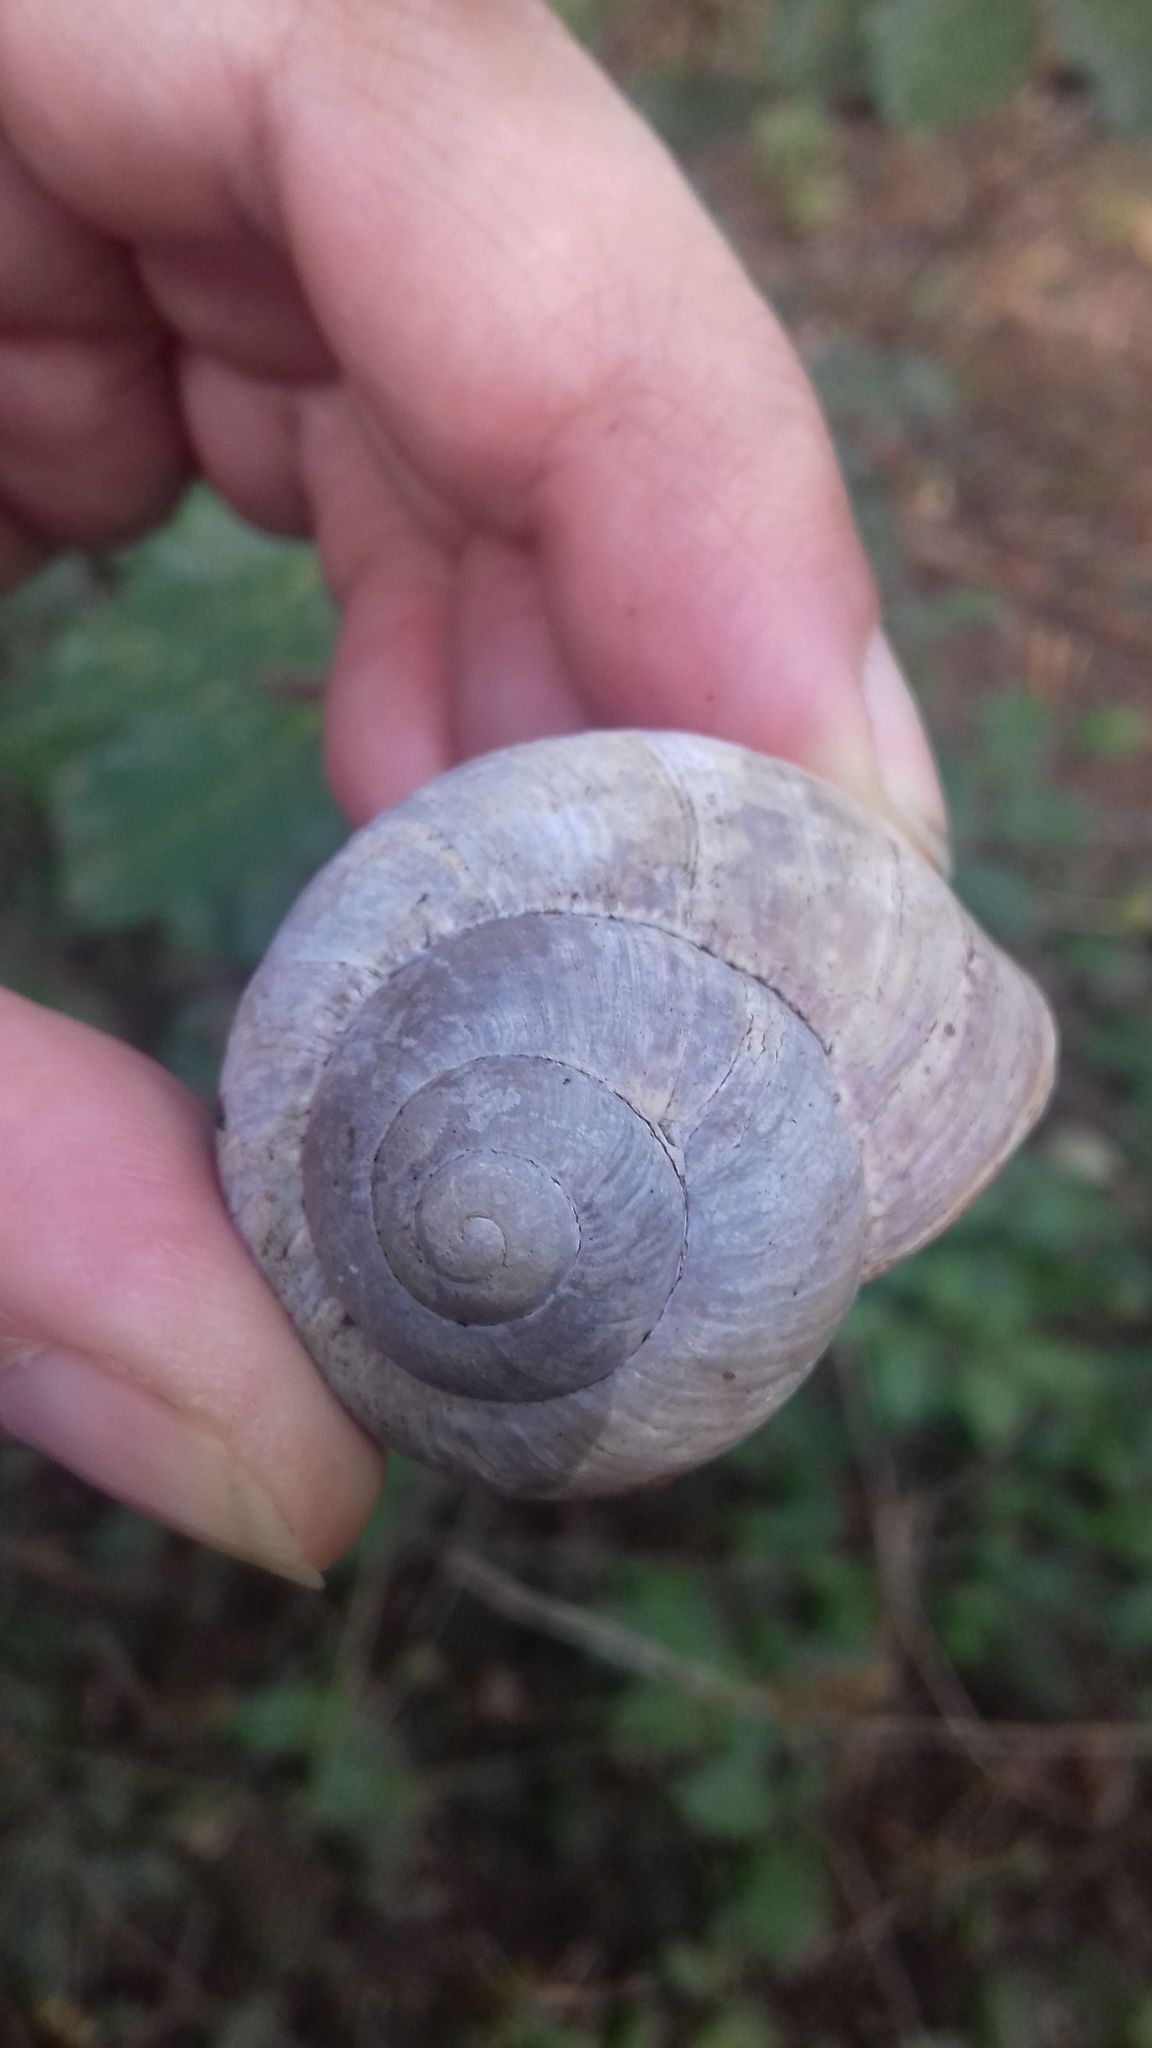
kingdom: Animalia
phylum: Mollusca
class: Gastropoda
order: Stylommatophora
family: Helicidae
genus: Helix
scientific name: Helix pomatia
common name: Roman snail
